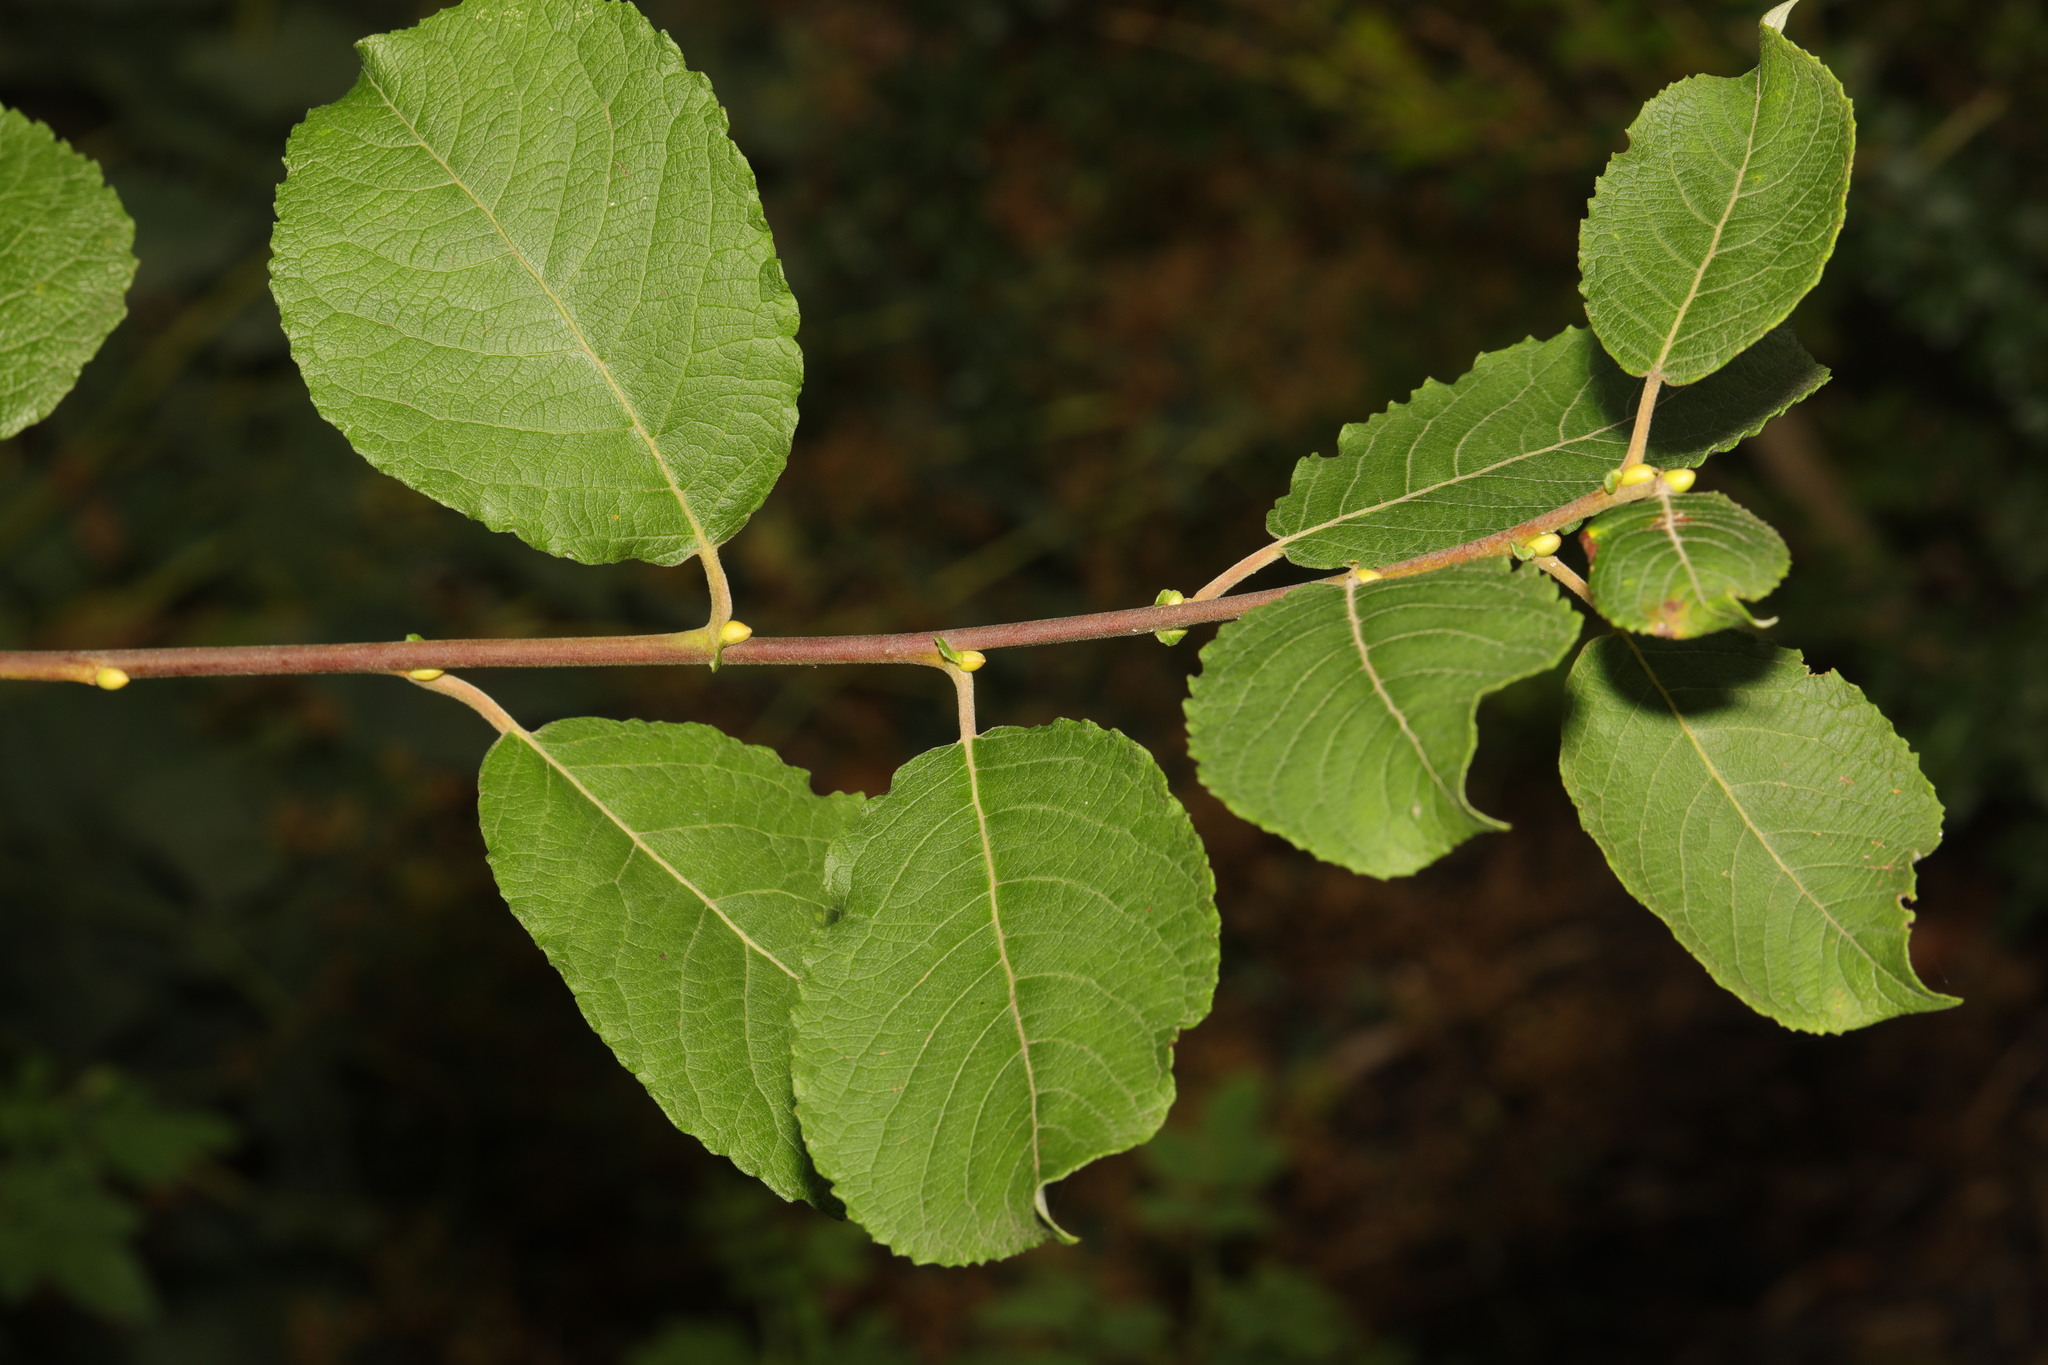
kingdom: Plantae
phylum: Tracheophyta
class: Magnoliopsida
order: Malpighiales
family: Salicaceae
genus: Salix
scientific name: Salix caprea
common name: Goat willow
